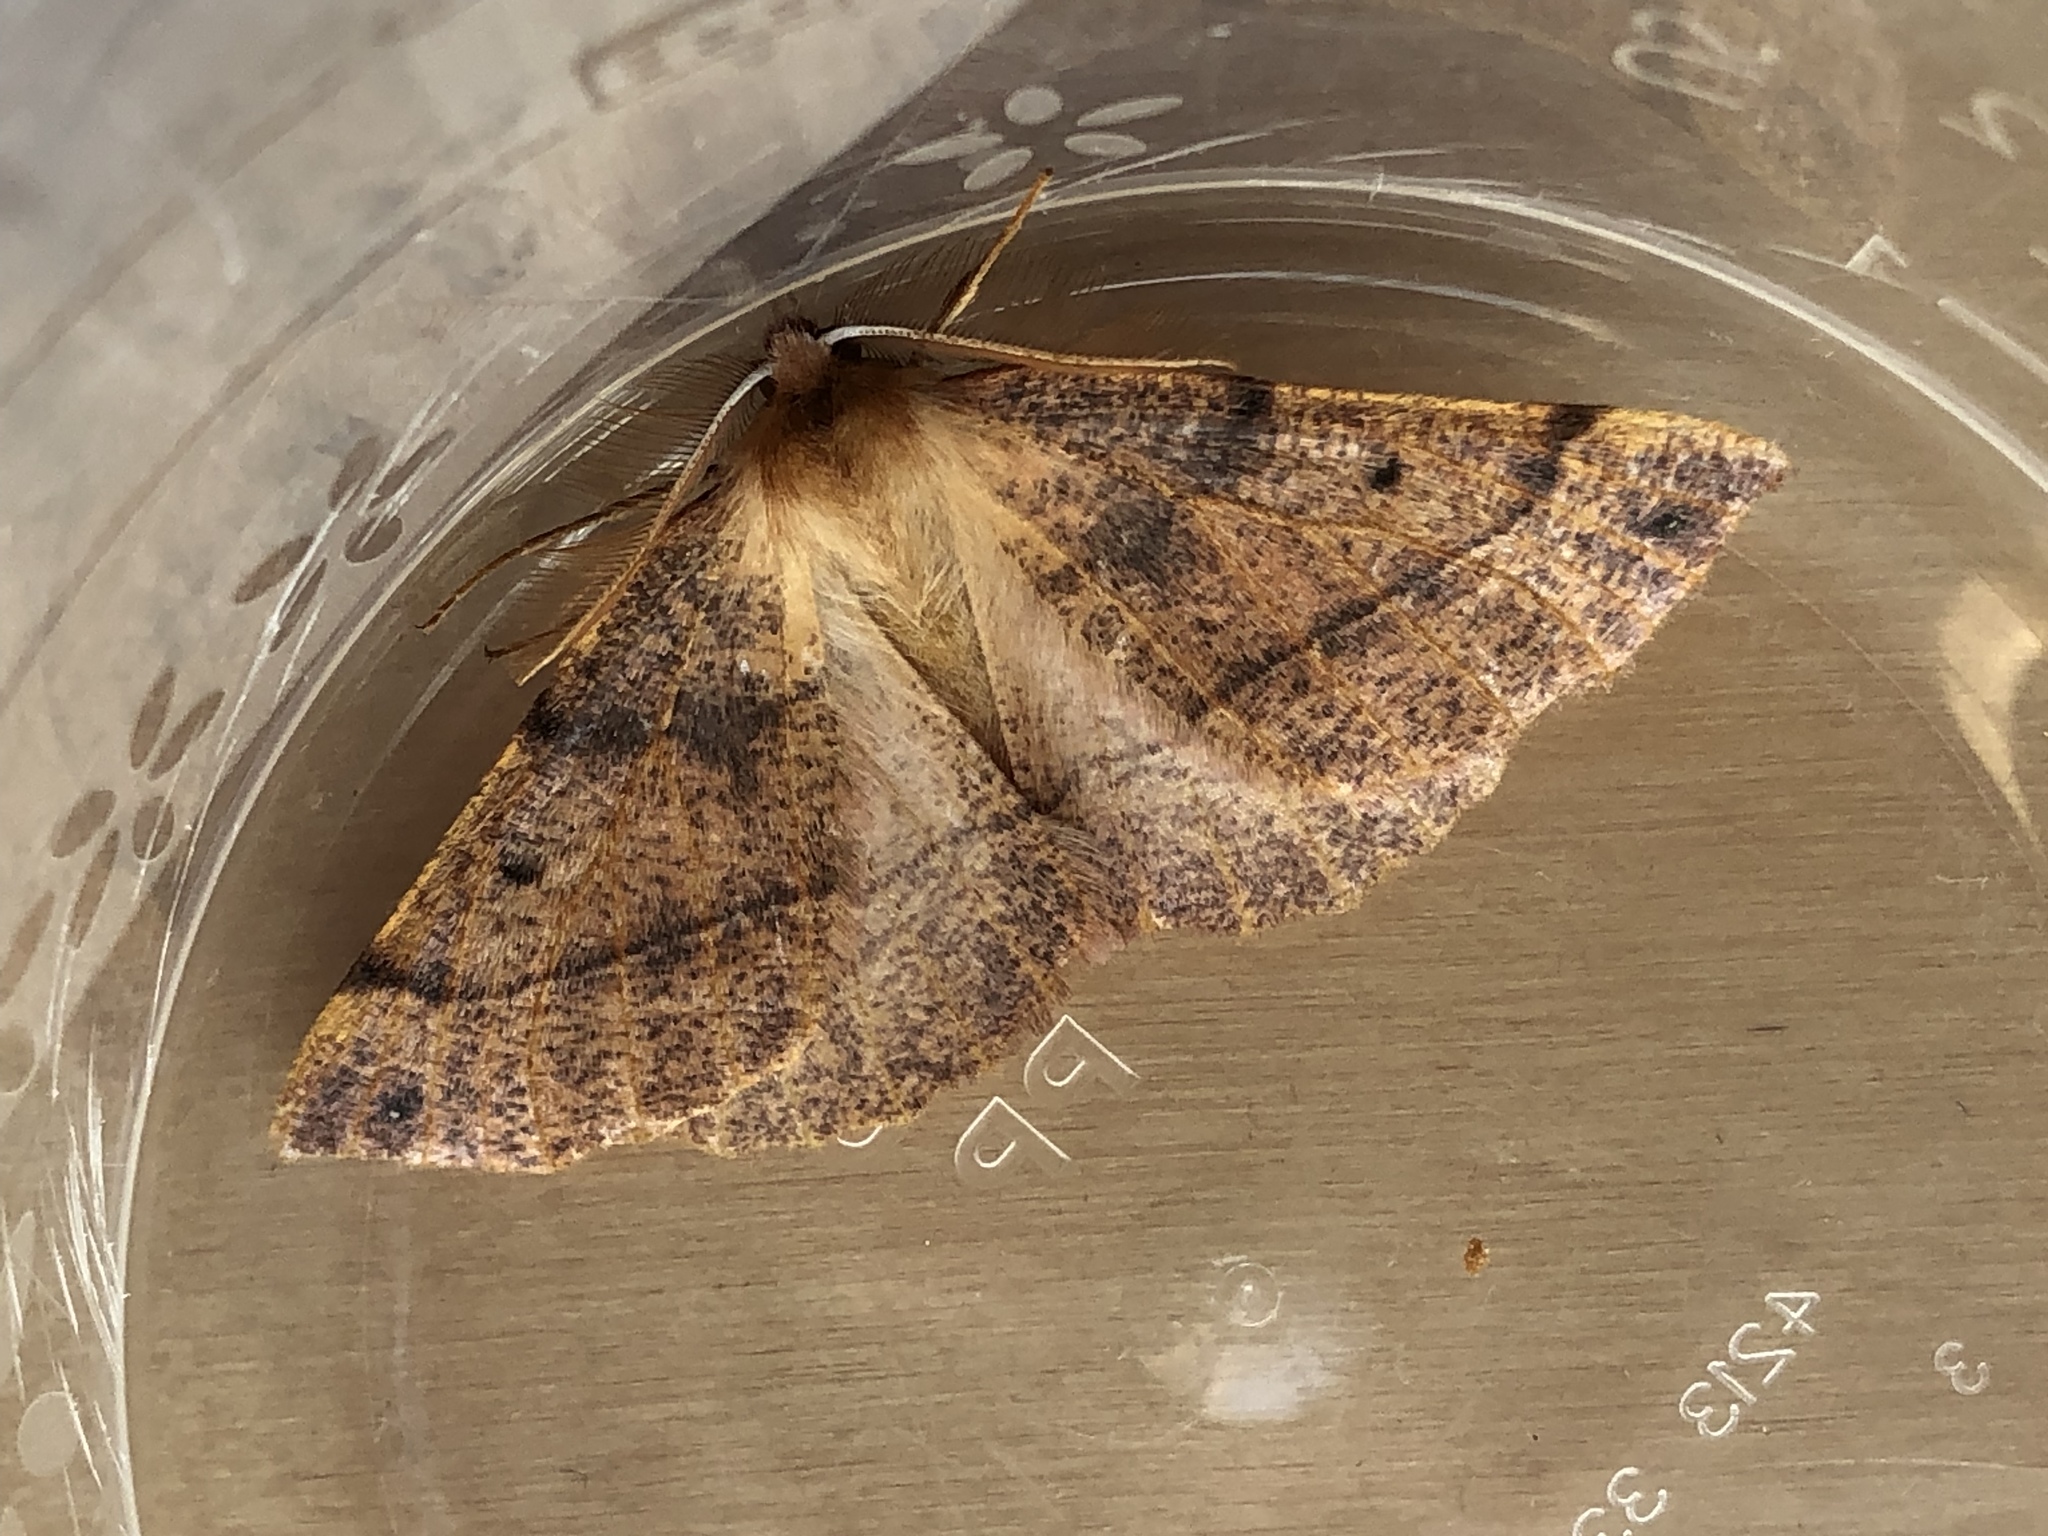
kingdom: Animalia
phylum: Arthropoda
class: Insecta
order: Lepidoptera
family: Geometridae
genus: Colotois
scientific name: Colotois pennaria
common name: Feathered thorn
